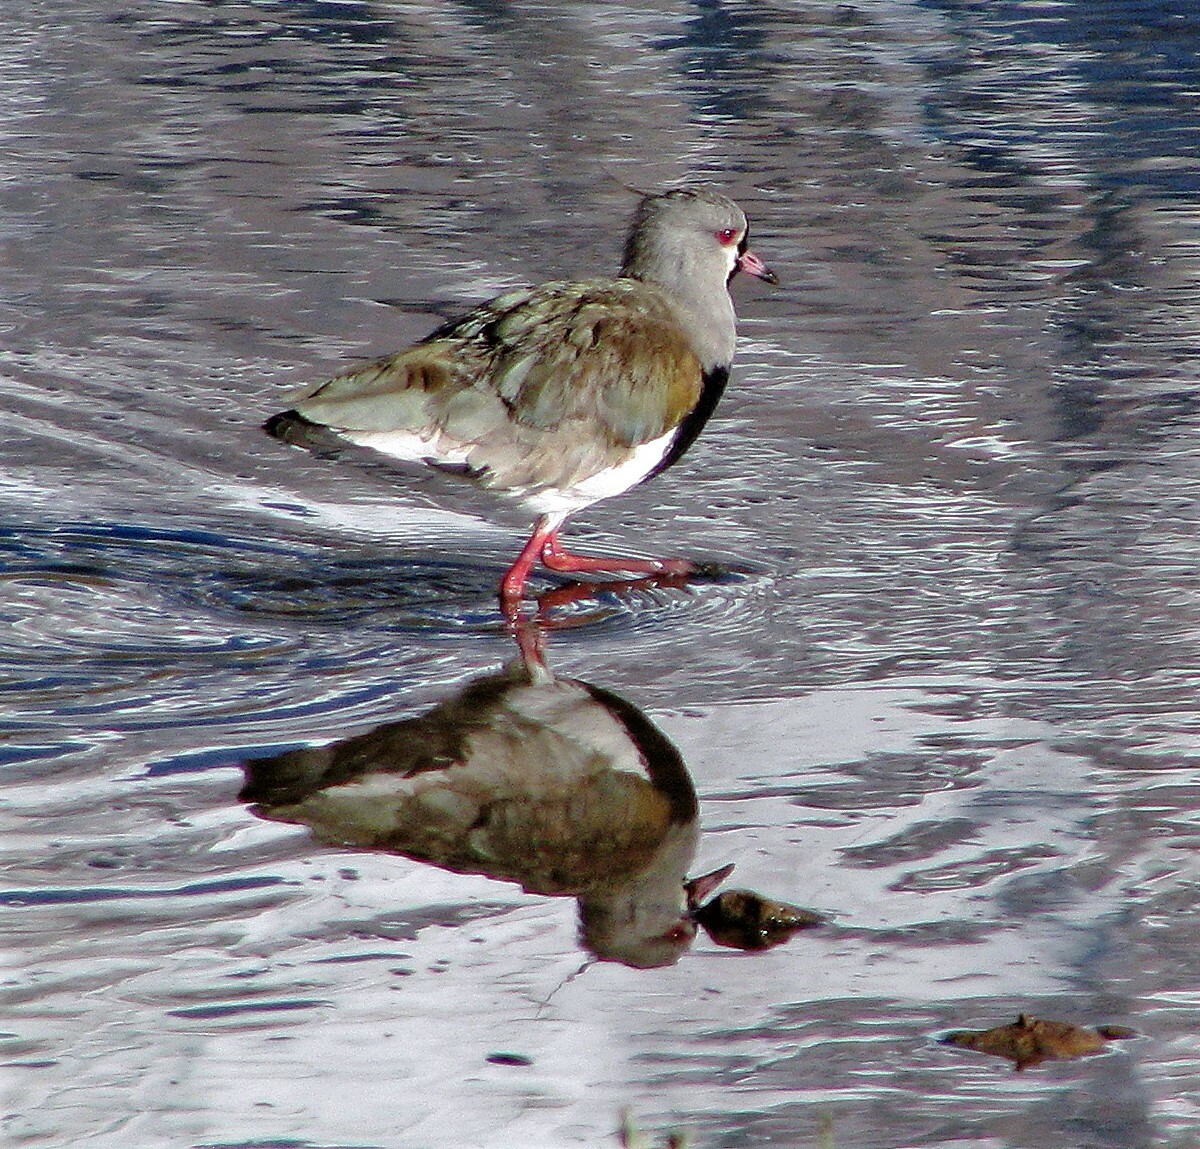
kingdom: Animalia
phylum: Chordata
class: Aves
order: Charadriiformes
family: Charadriidae
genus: Vanellus
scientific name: Vanellus chilensis
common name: Southern lapwing
